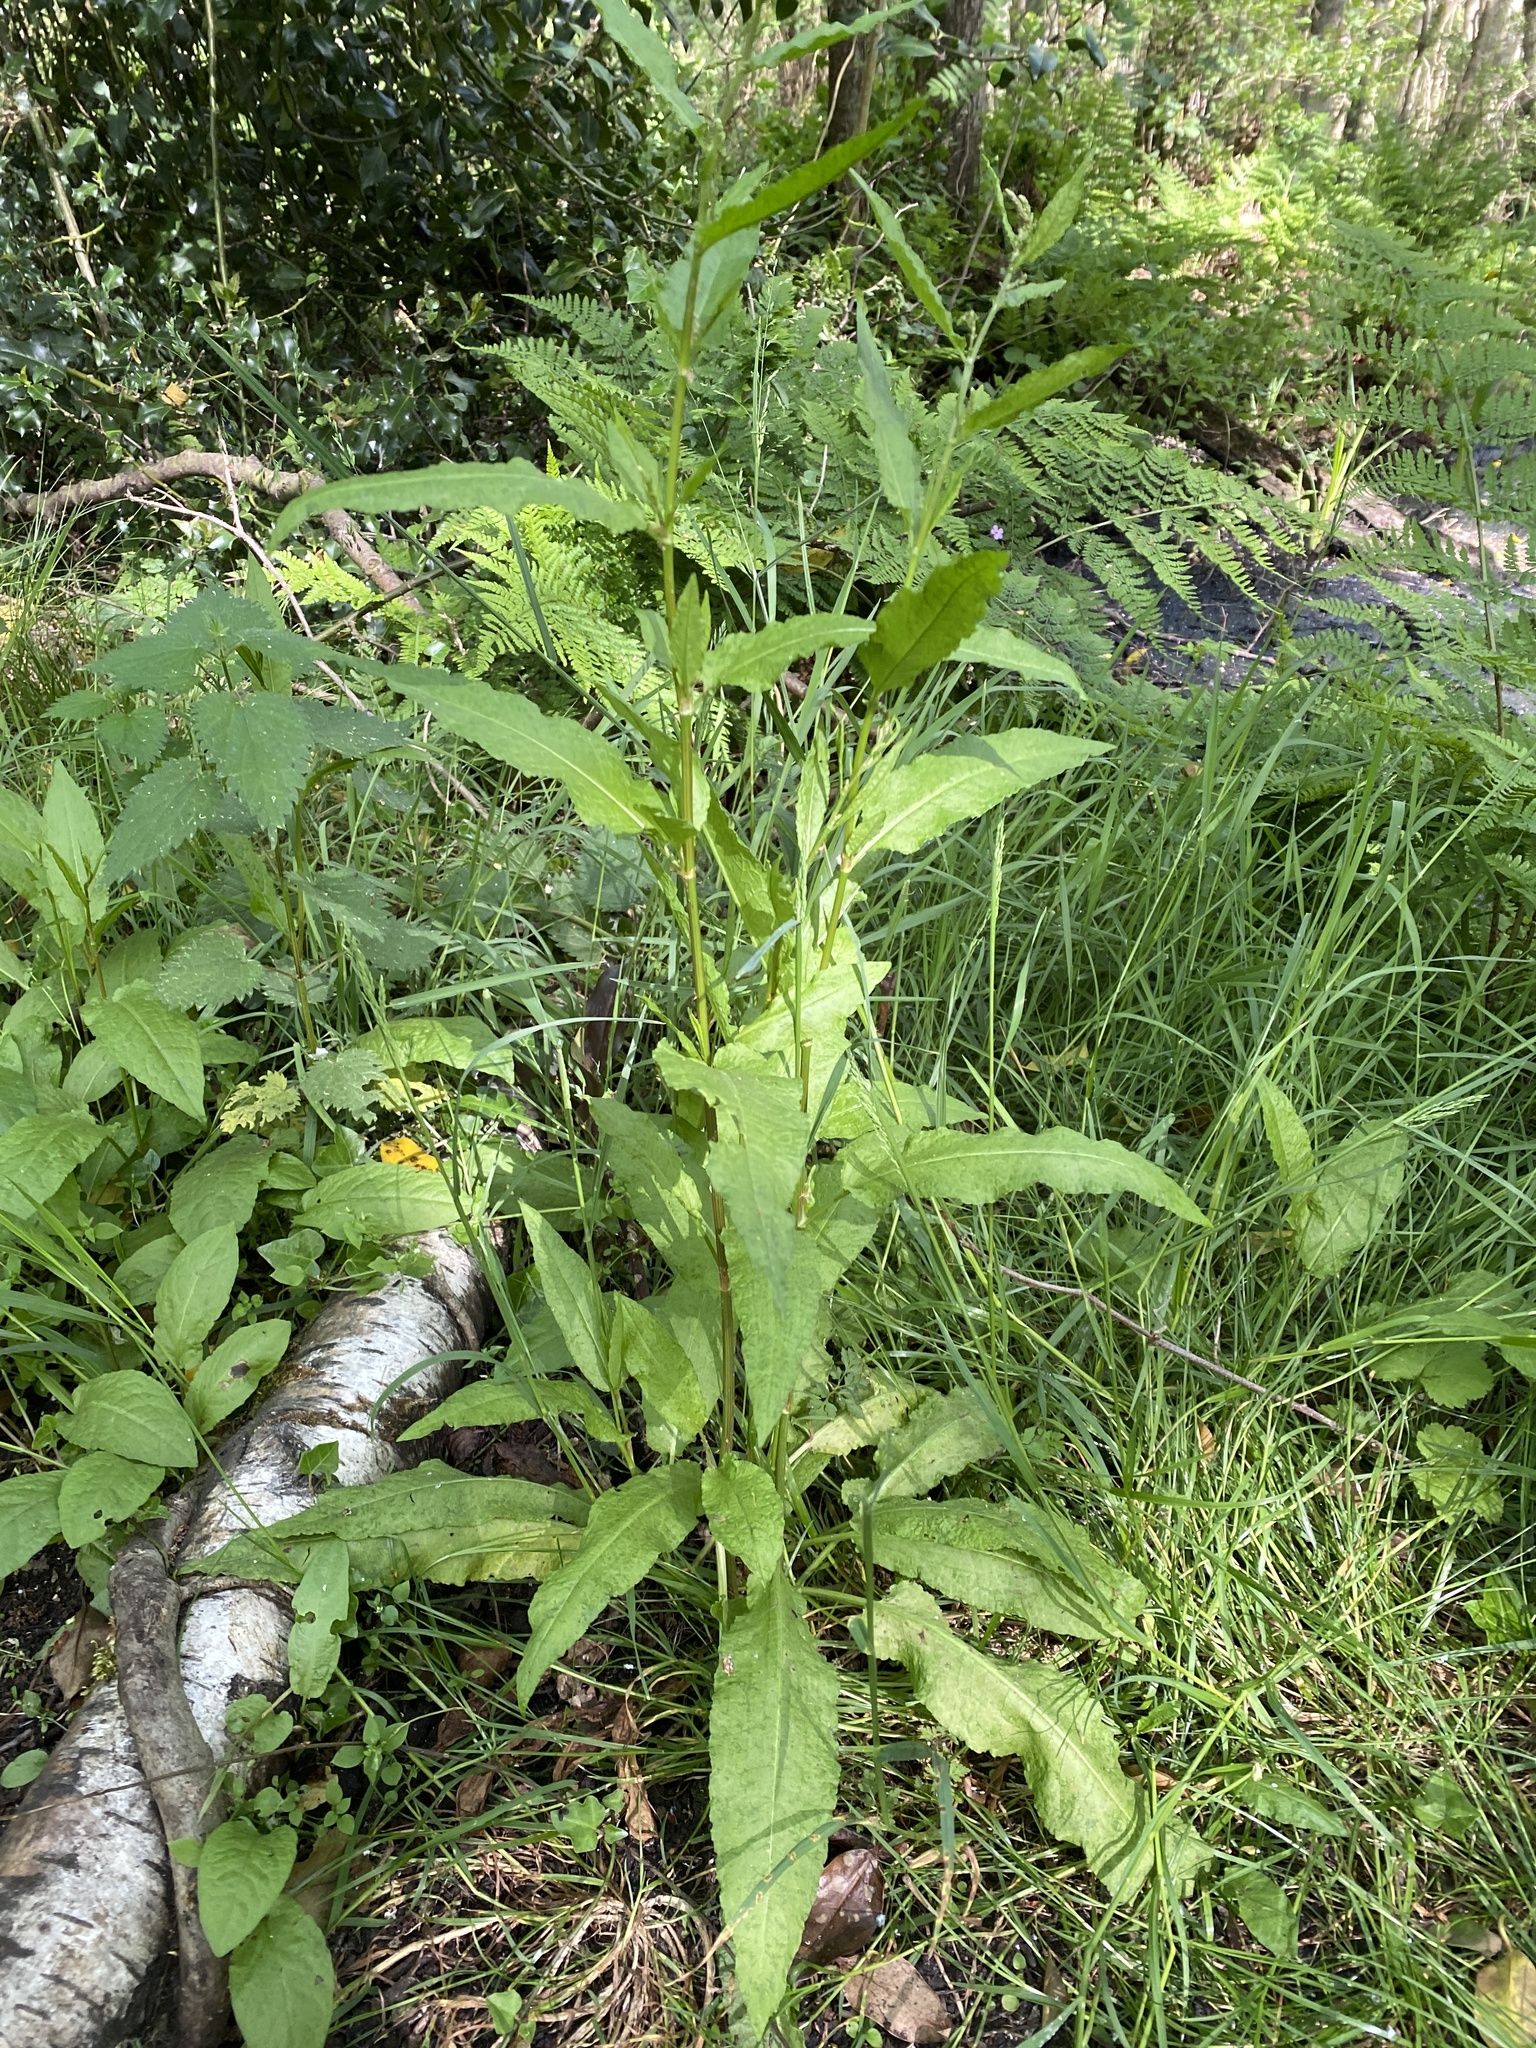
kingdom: Plantae
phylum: Tracheophyta
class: Magnoliopsida
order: Caryophyllales
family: Polygonaceae
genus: Rumex
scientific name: Rumex sanguineus
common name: Wood dock
